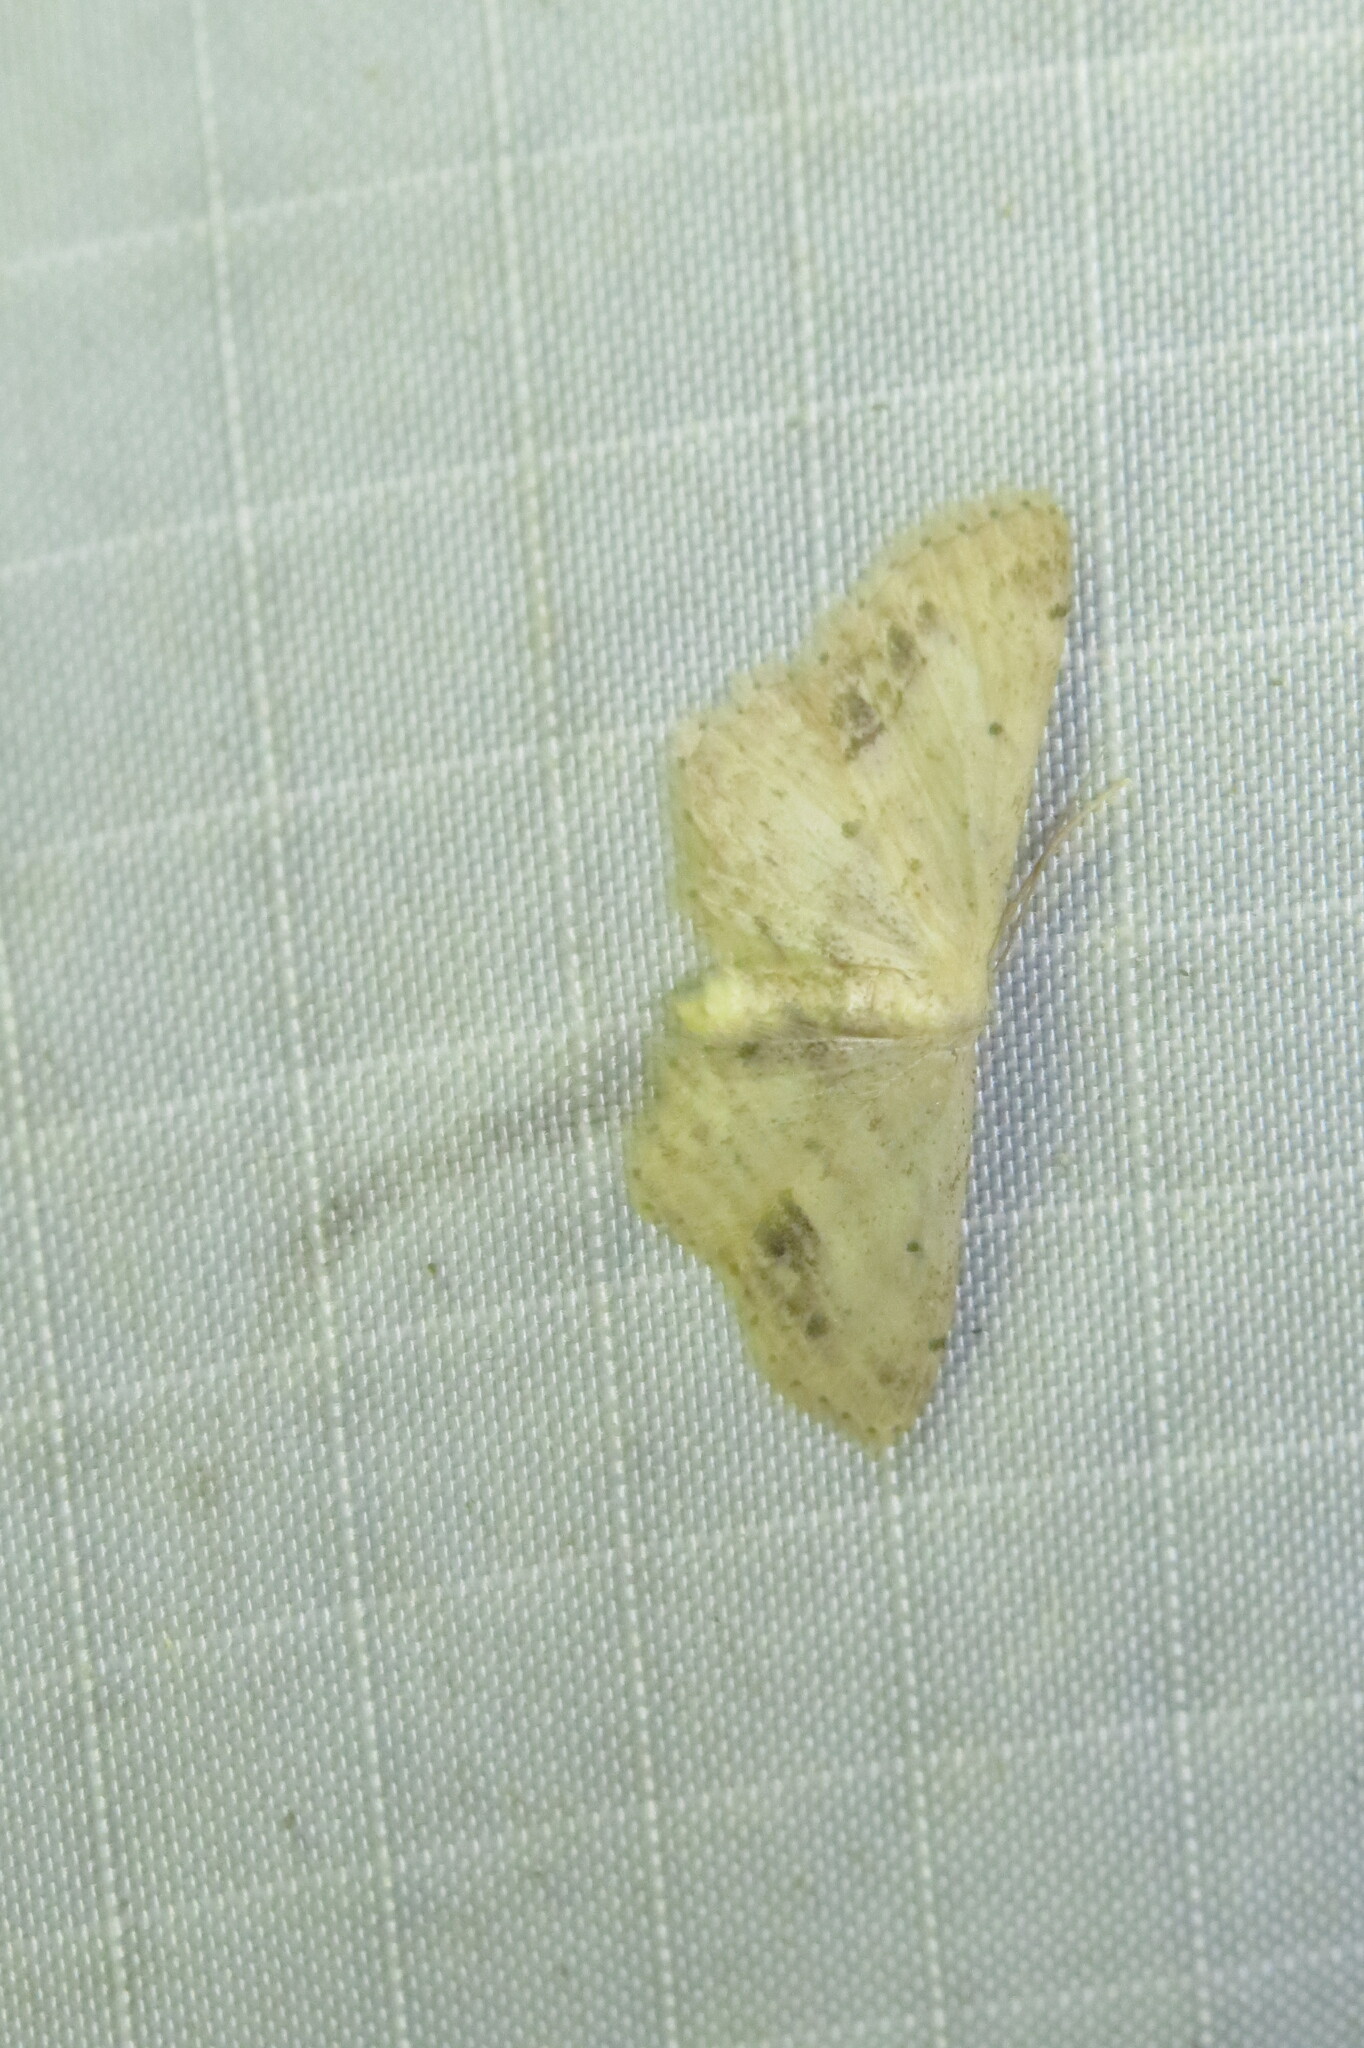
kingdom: Animalia
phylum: Arthropoda
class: Insecta
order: Lepidoptera
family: Geometridae
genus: Idaea
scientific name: Idaea dimidiata
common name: Single-dotted wave
